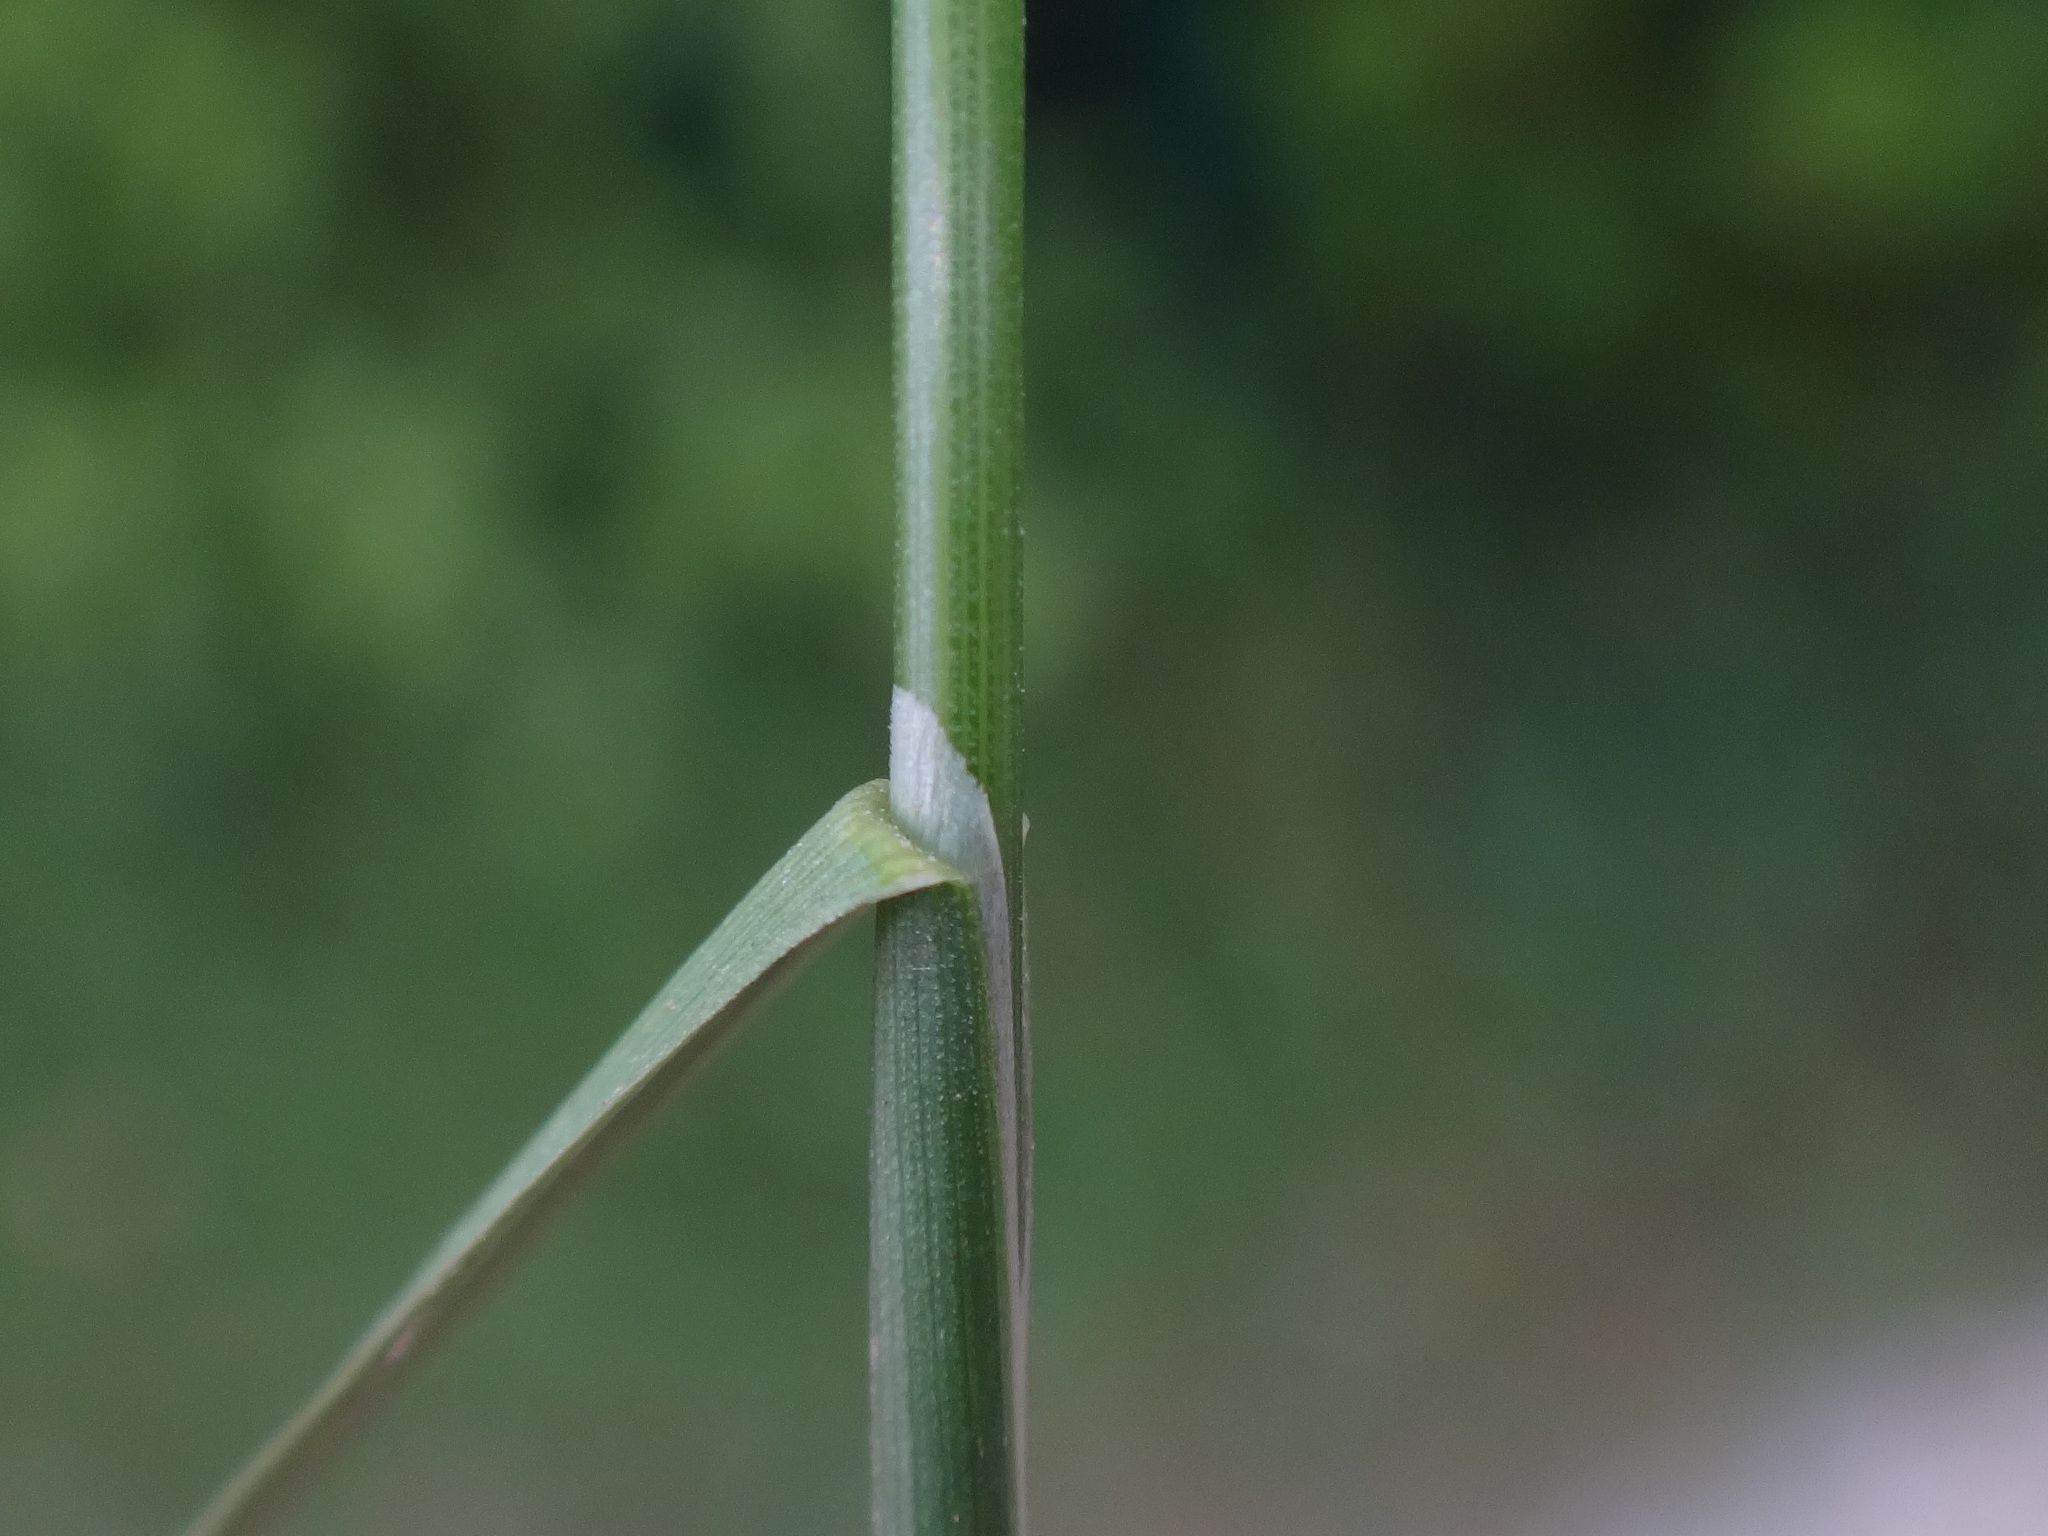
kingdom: Plantae
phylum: Tracheophyta
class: Liliopsida
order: Poales
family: Poaceae
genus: Poa
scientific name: Poa pratensis
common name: Kentucky bluegrass
